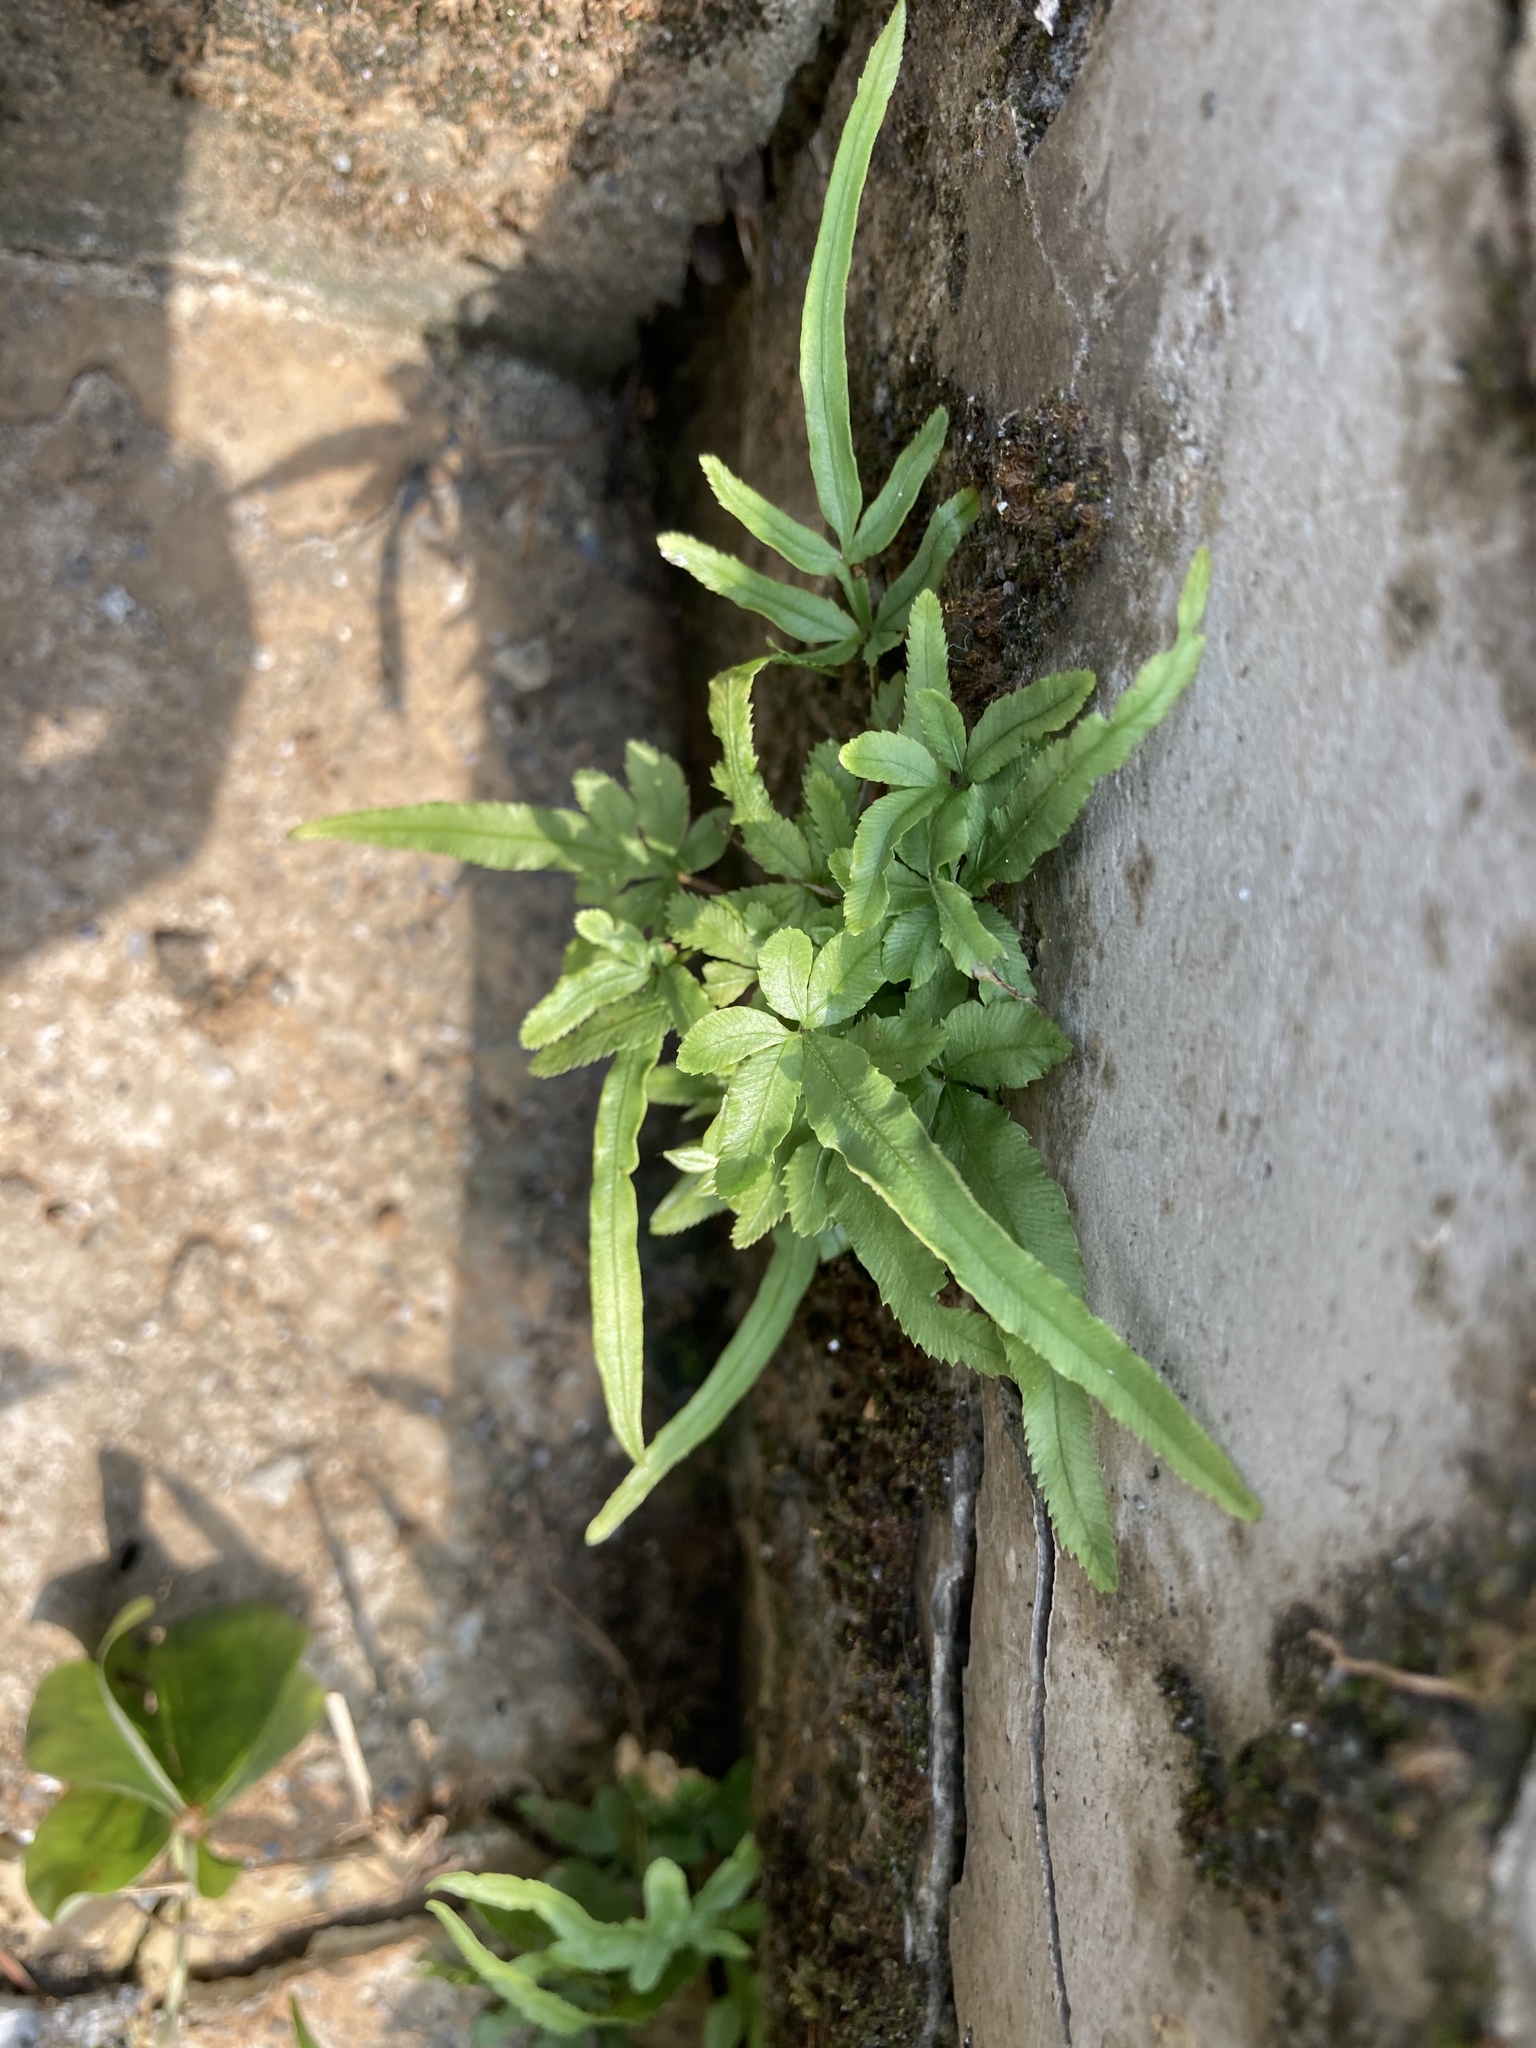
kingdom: Plantae
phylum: Tracheophyta
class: Polypodiopsida
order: Polypodiales
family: Pteridaceae
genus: Pteris
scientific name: Pteris multifida
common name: Spider brake
